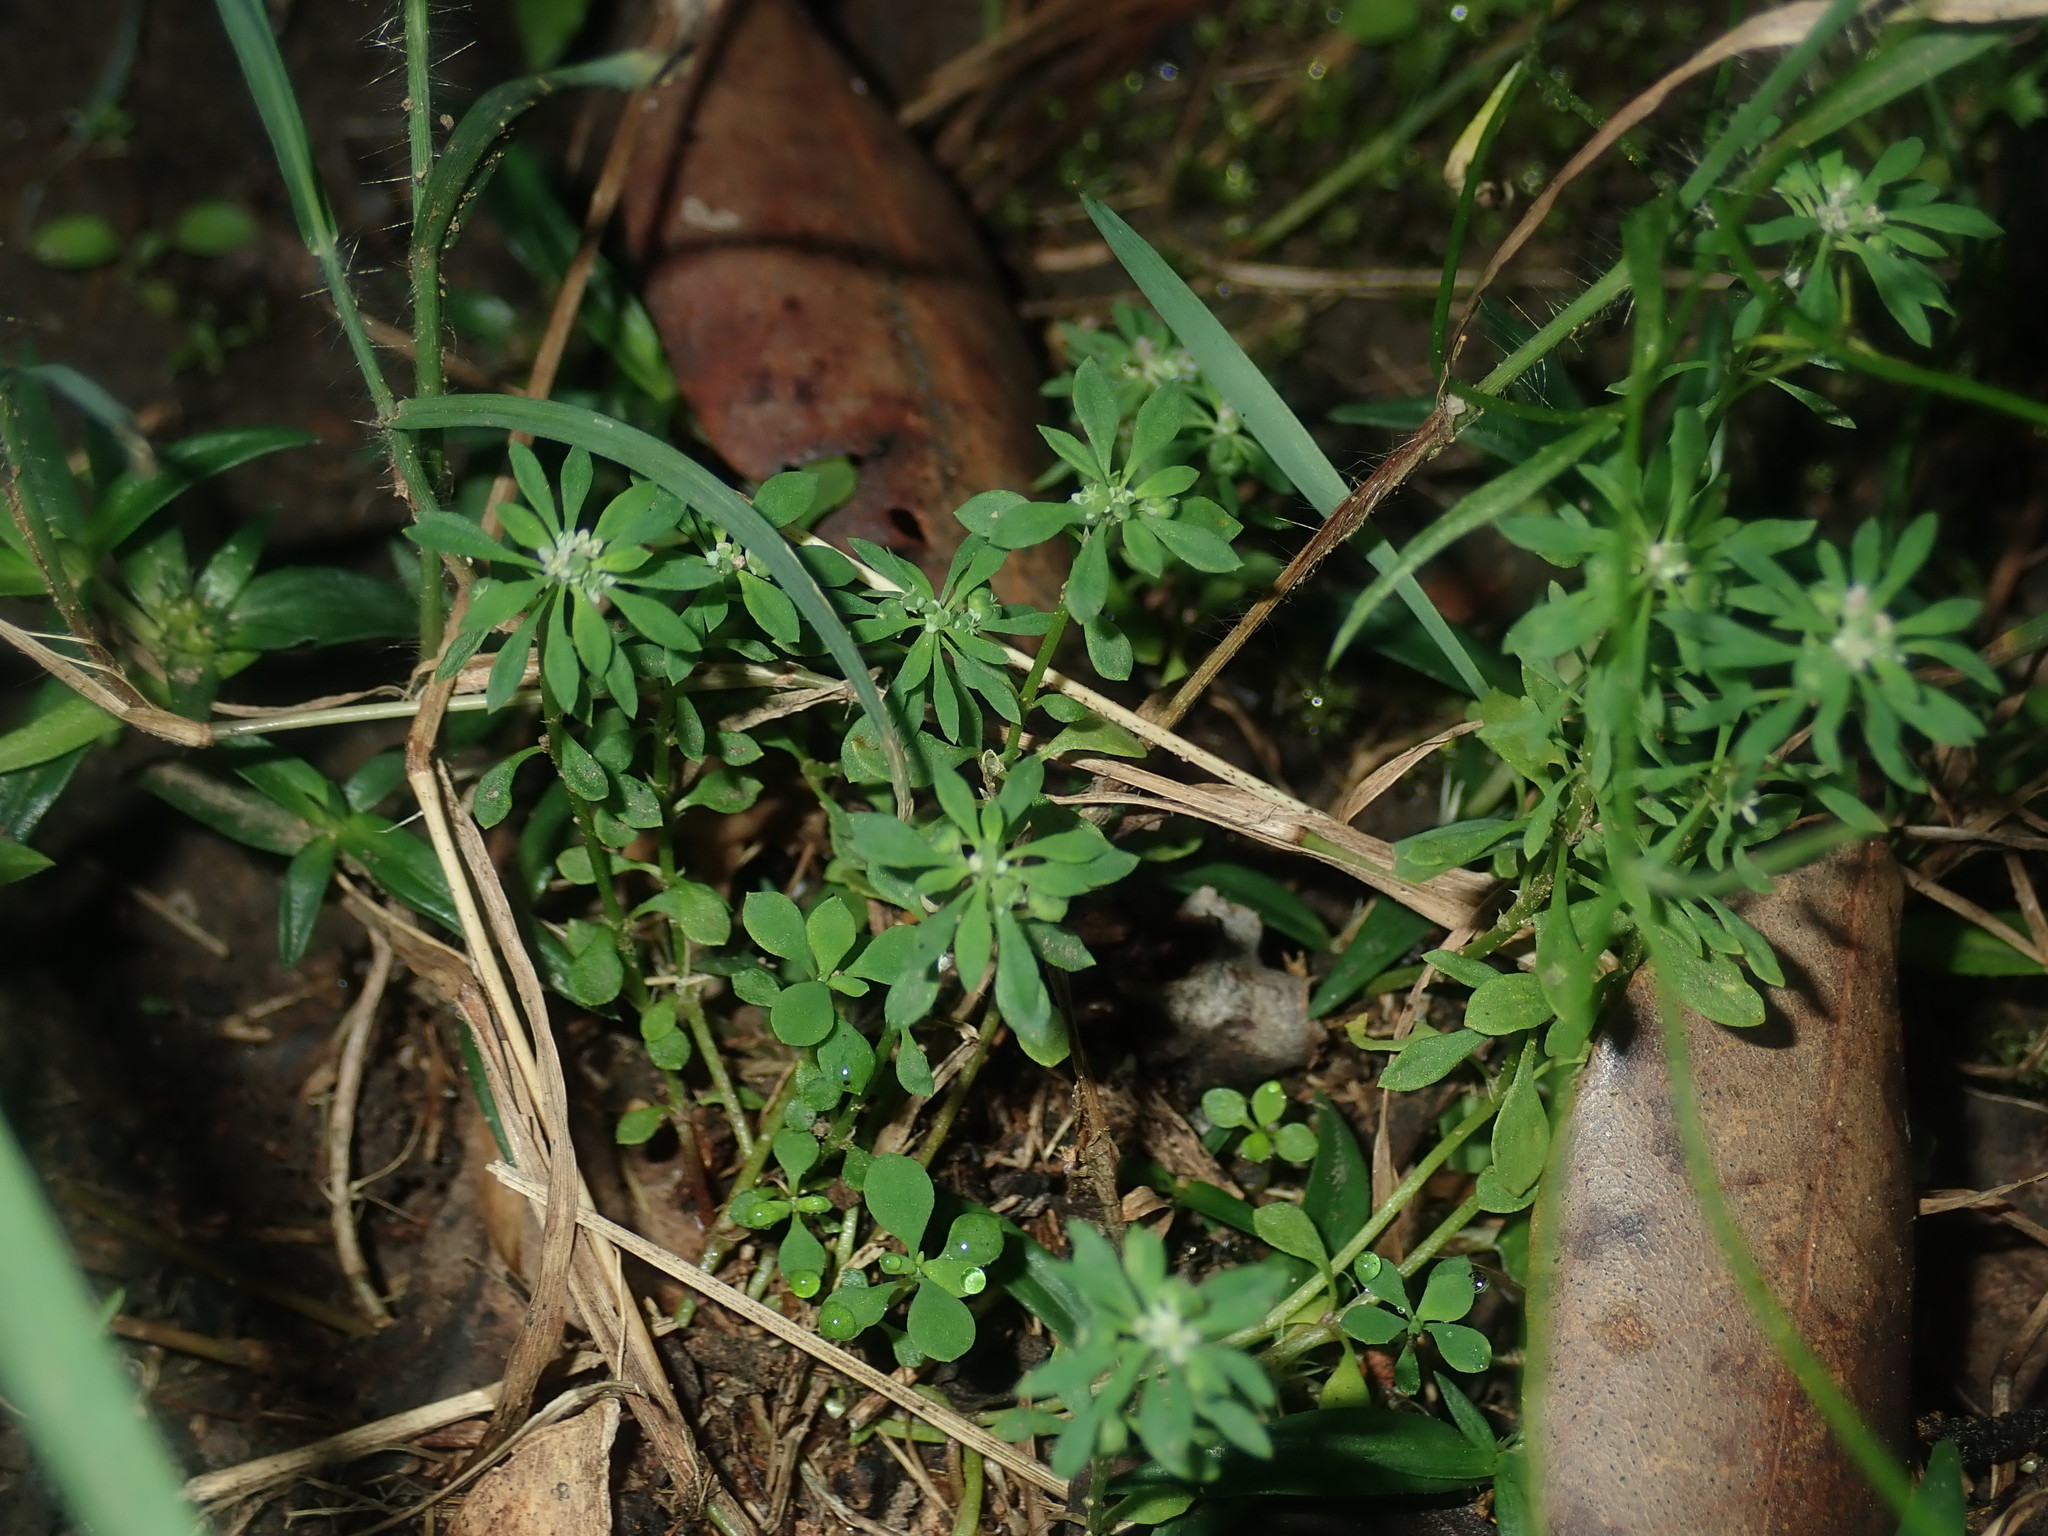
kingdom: Plantae
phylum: Tracheophyta
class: Magnoliopsida
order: Malpighiales
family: Phyllanthaceae
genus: Poranthera
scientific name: Poranthera microphylla
